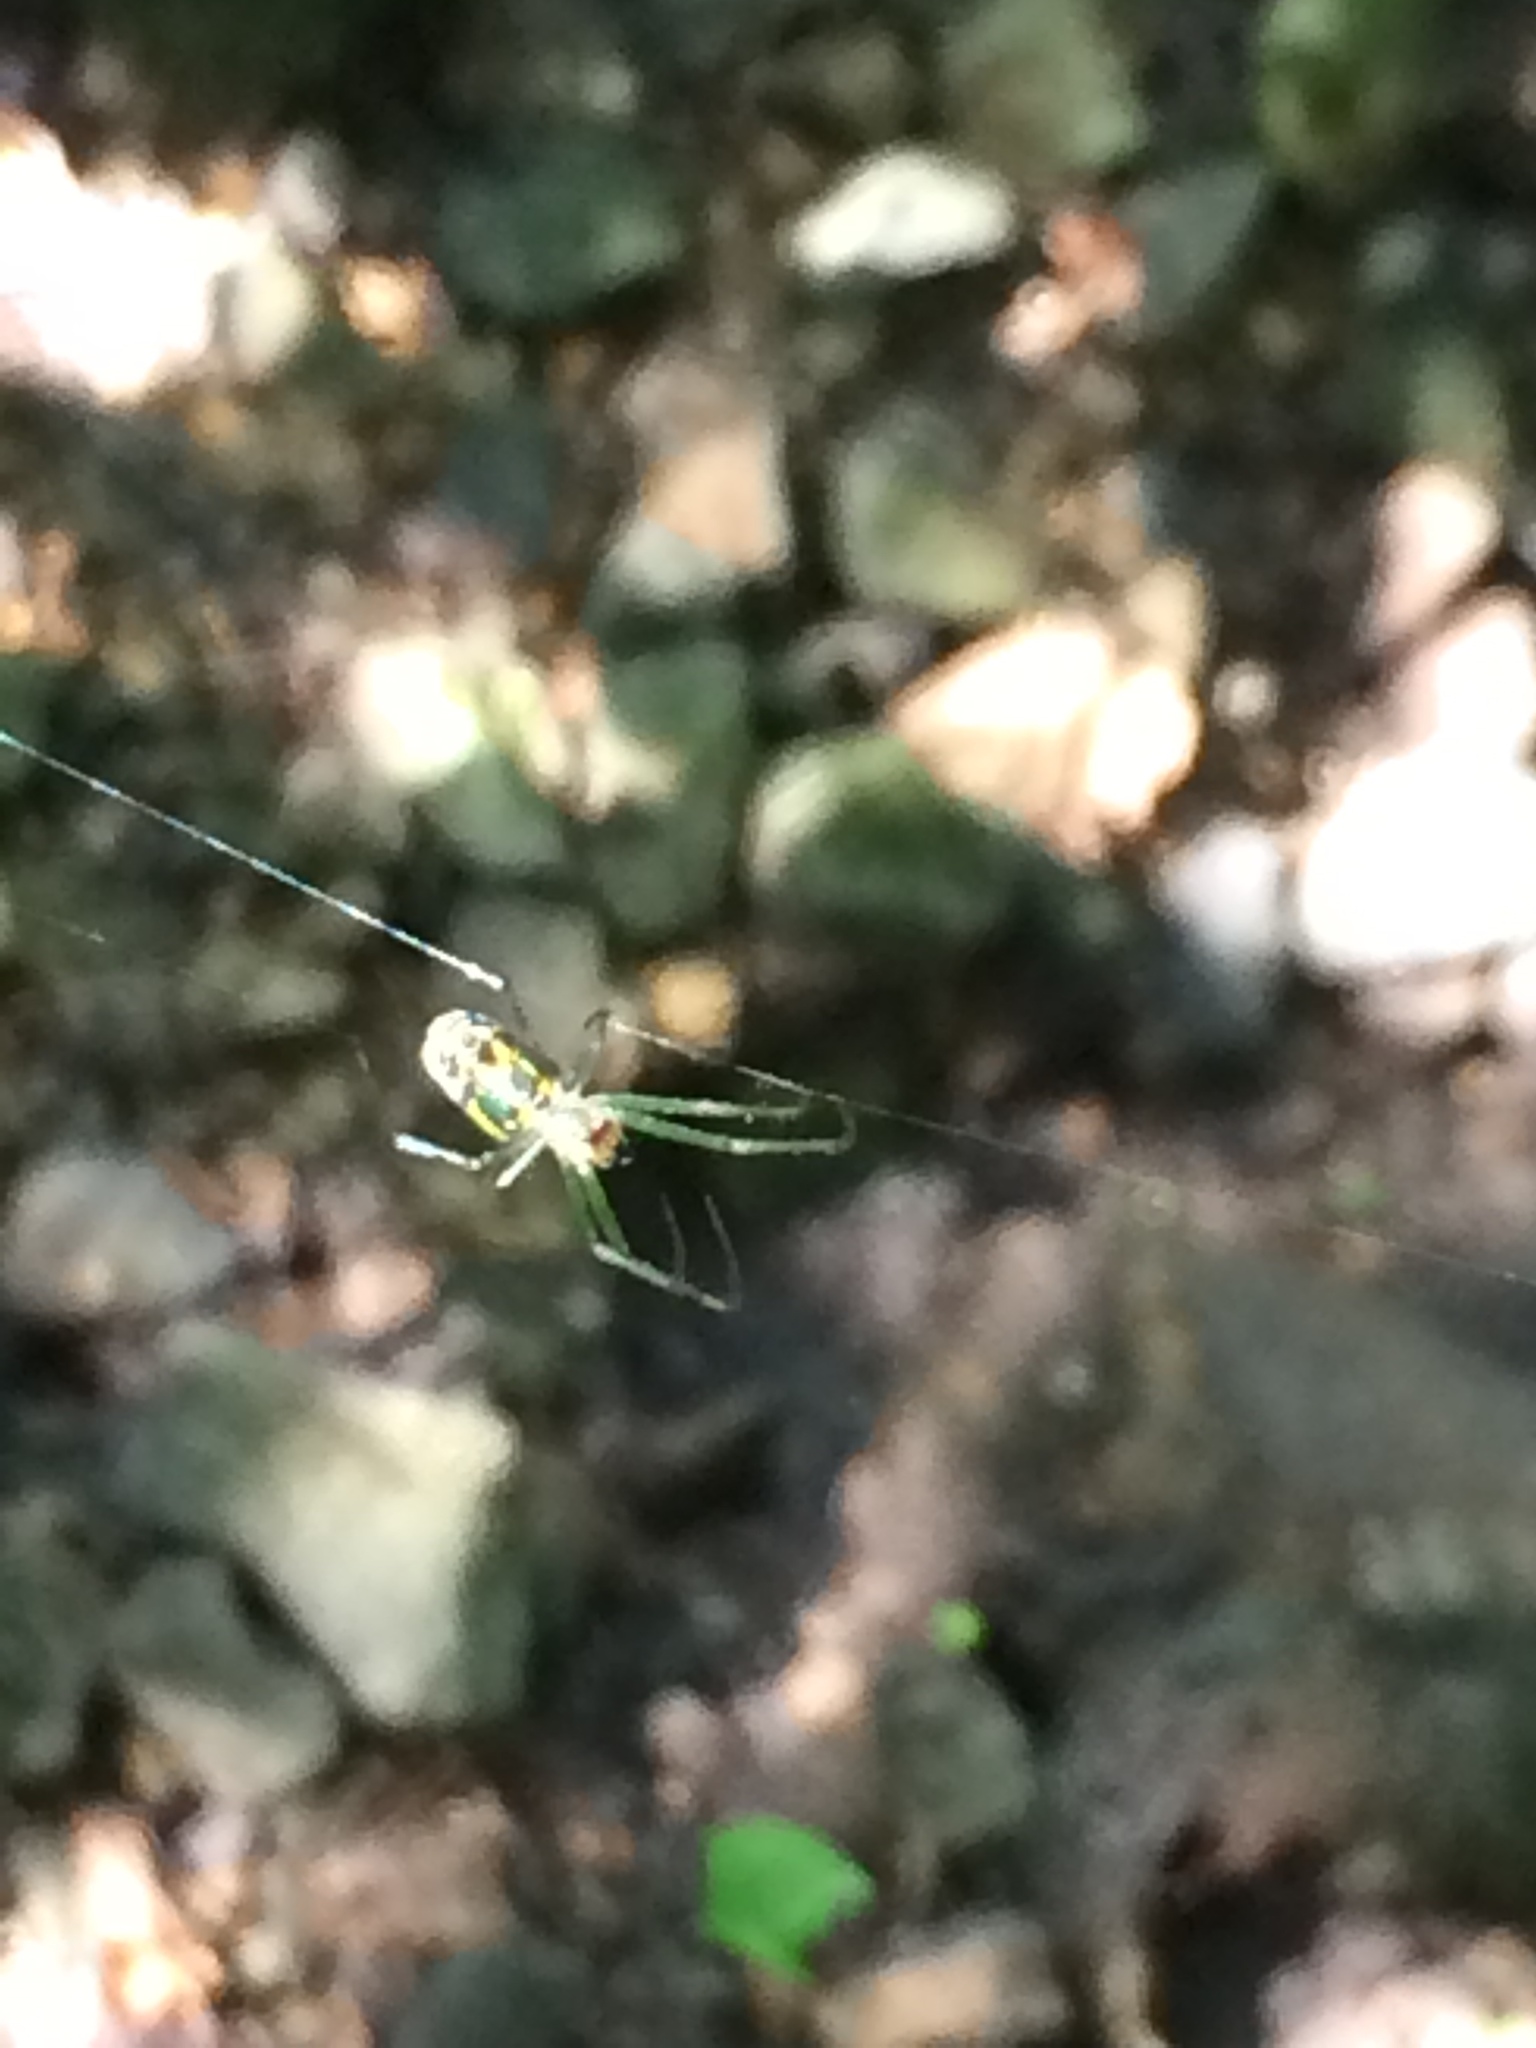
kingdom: Animalia
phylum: Arthropoda
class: Arachnida
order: Araneae
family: Tetragnathidae
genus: Leucauge
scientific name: Leucauge venusta
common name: Longjawed orb weavers
